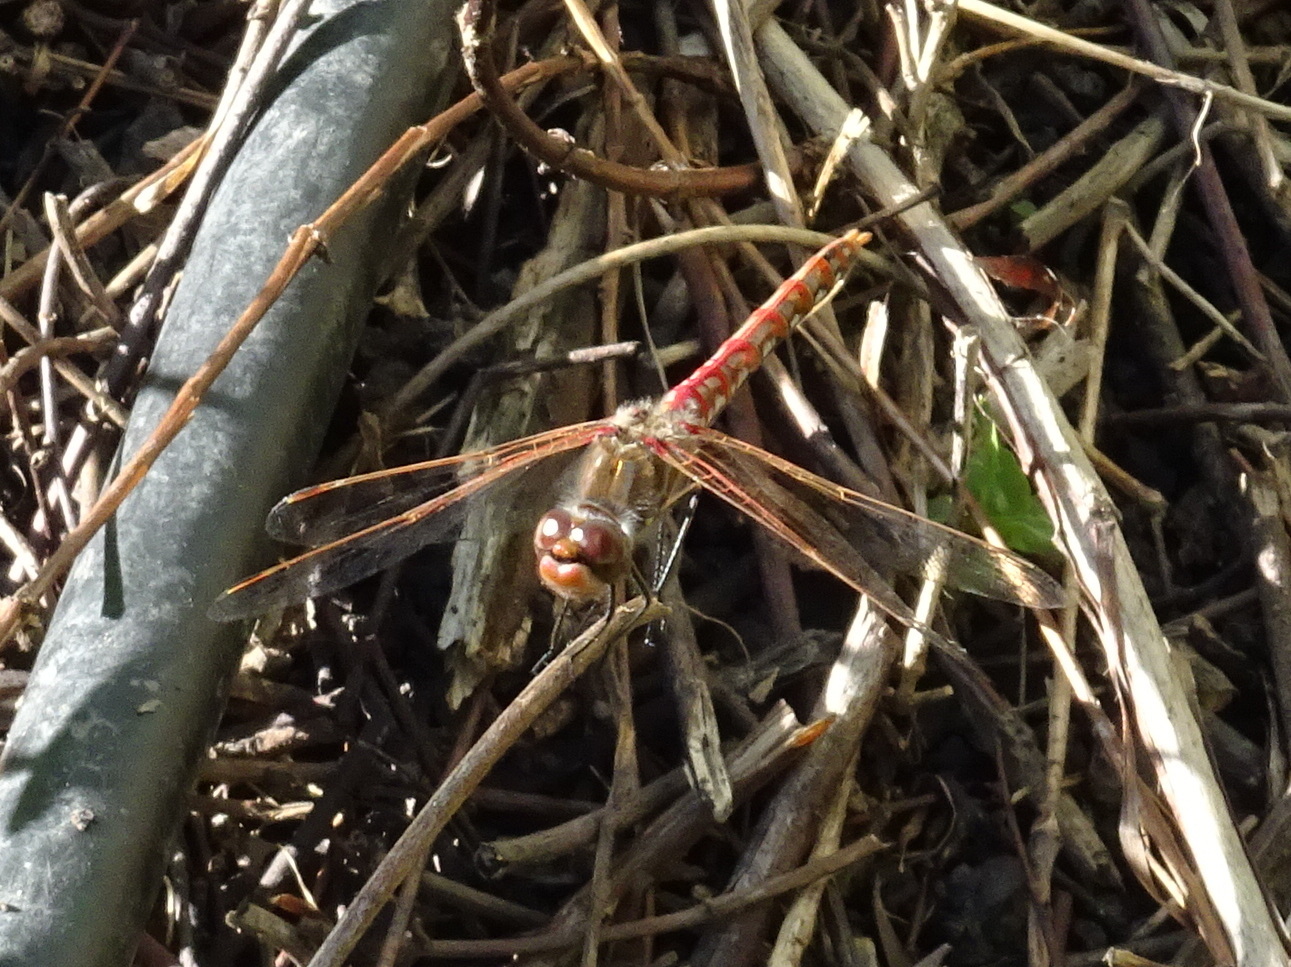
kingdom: Animalia
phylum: Arthropoda
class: Insecta
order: Odonata
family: Libellulidae
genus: Sympetrum
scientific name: Sympetrum corruptum
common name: Variegated meadowhawk
